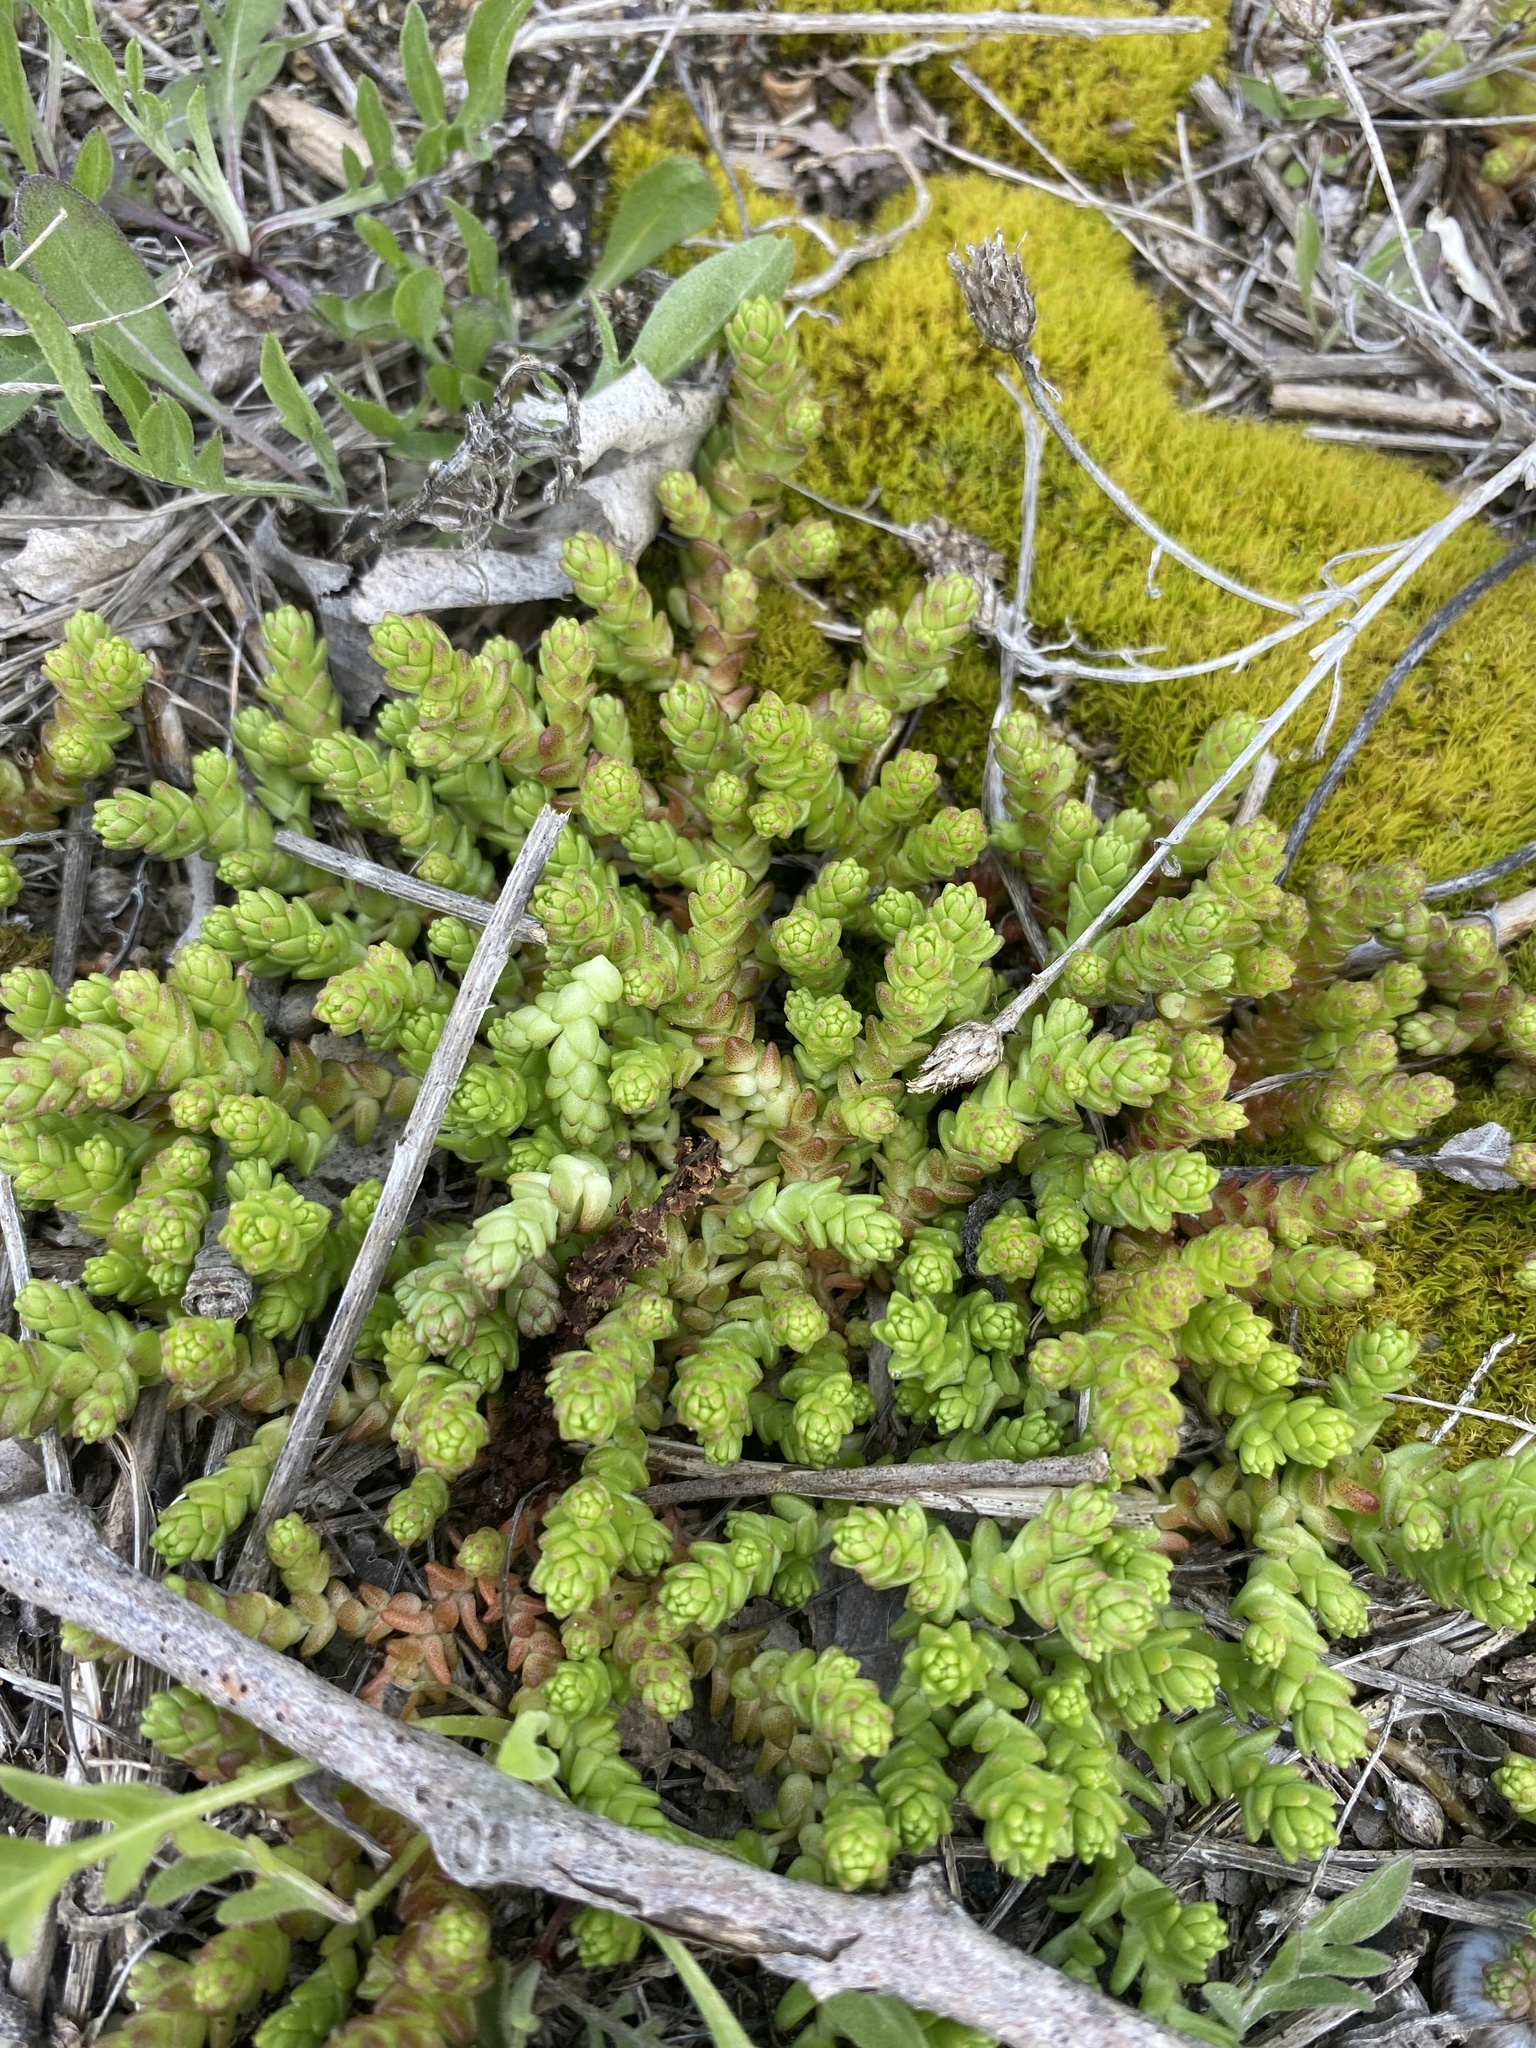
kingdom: Plantae
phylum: Tracheophyta
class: Magnoliopsida
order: Saxifragales
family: Crassulaceae
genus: Sedum
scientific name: Sedum acre
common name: Biting stonecrop
